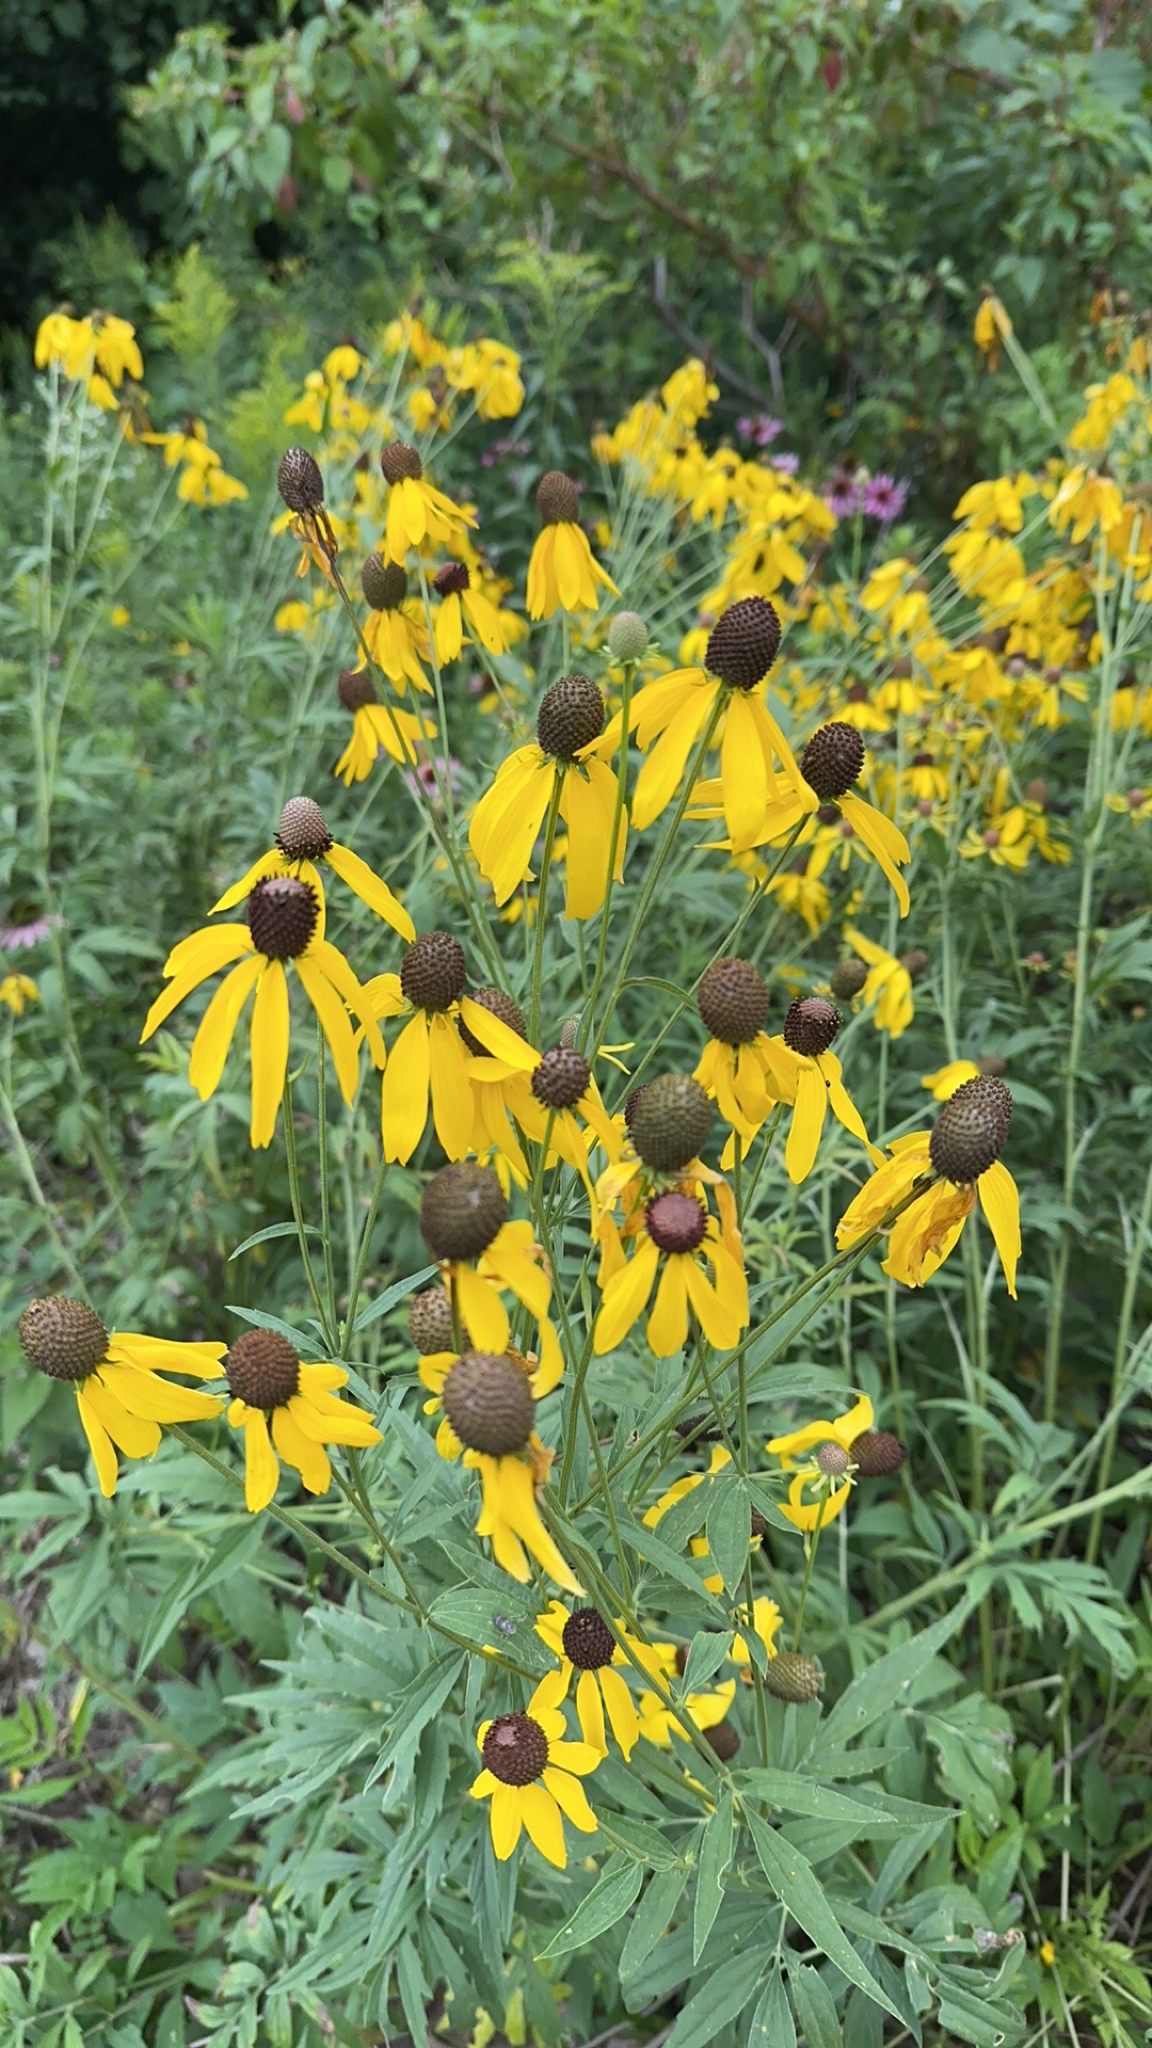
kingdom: Plantae
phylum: Tracheophyta
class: Magnoliopsida
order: Asterales
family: Asteraceae
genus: Ratibida
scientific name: Ratibida pinnata
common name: Drooping prairie-coneflower
